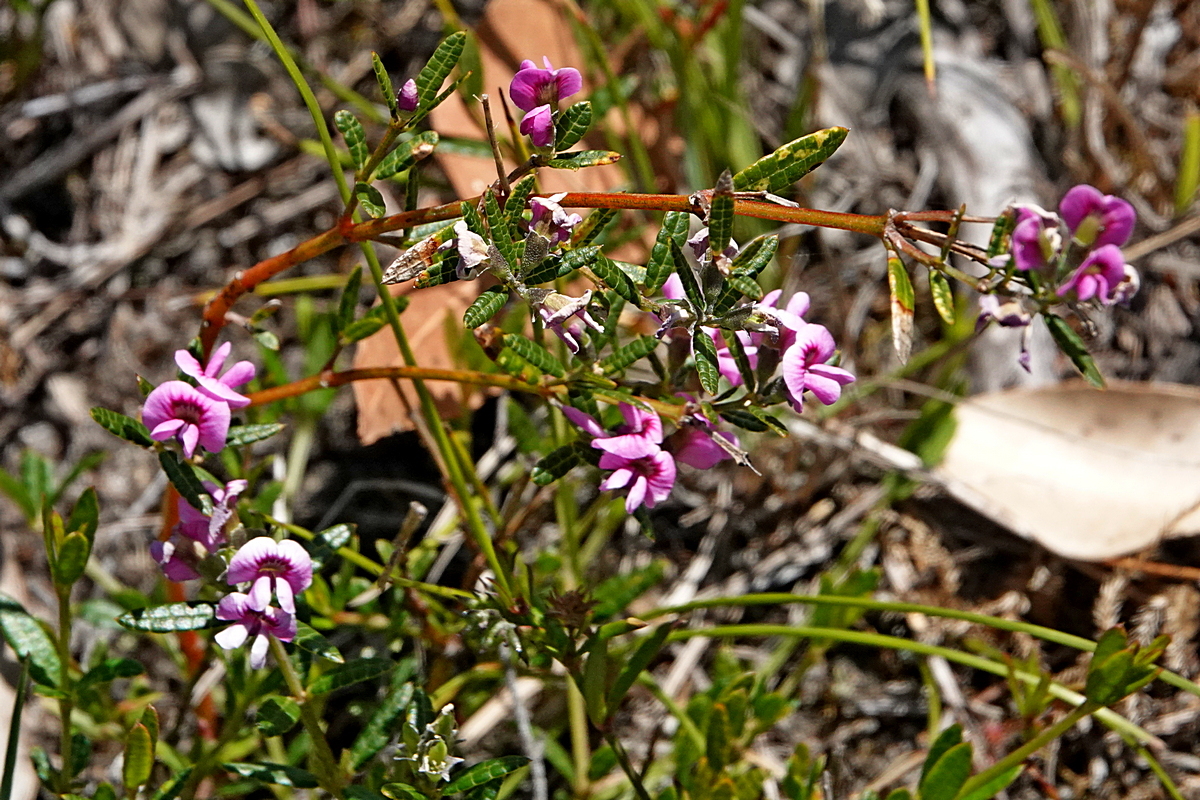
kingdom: Plantae
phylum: Tracheophyta
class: Magnoliopsida
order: Fabales
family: Fabaceae
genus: Mirbelia
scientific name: Mirbelia rubiifolia
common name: Heathy mirbelia
